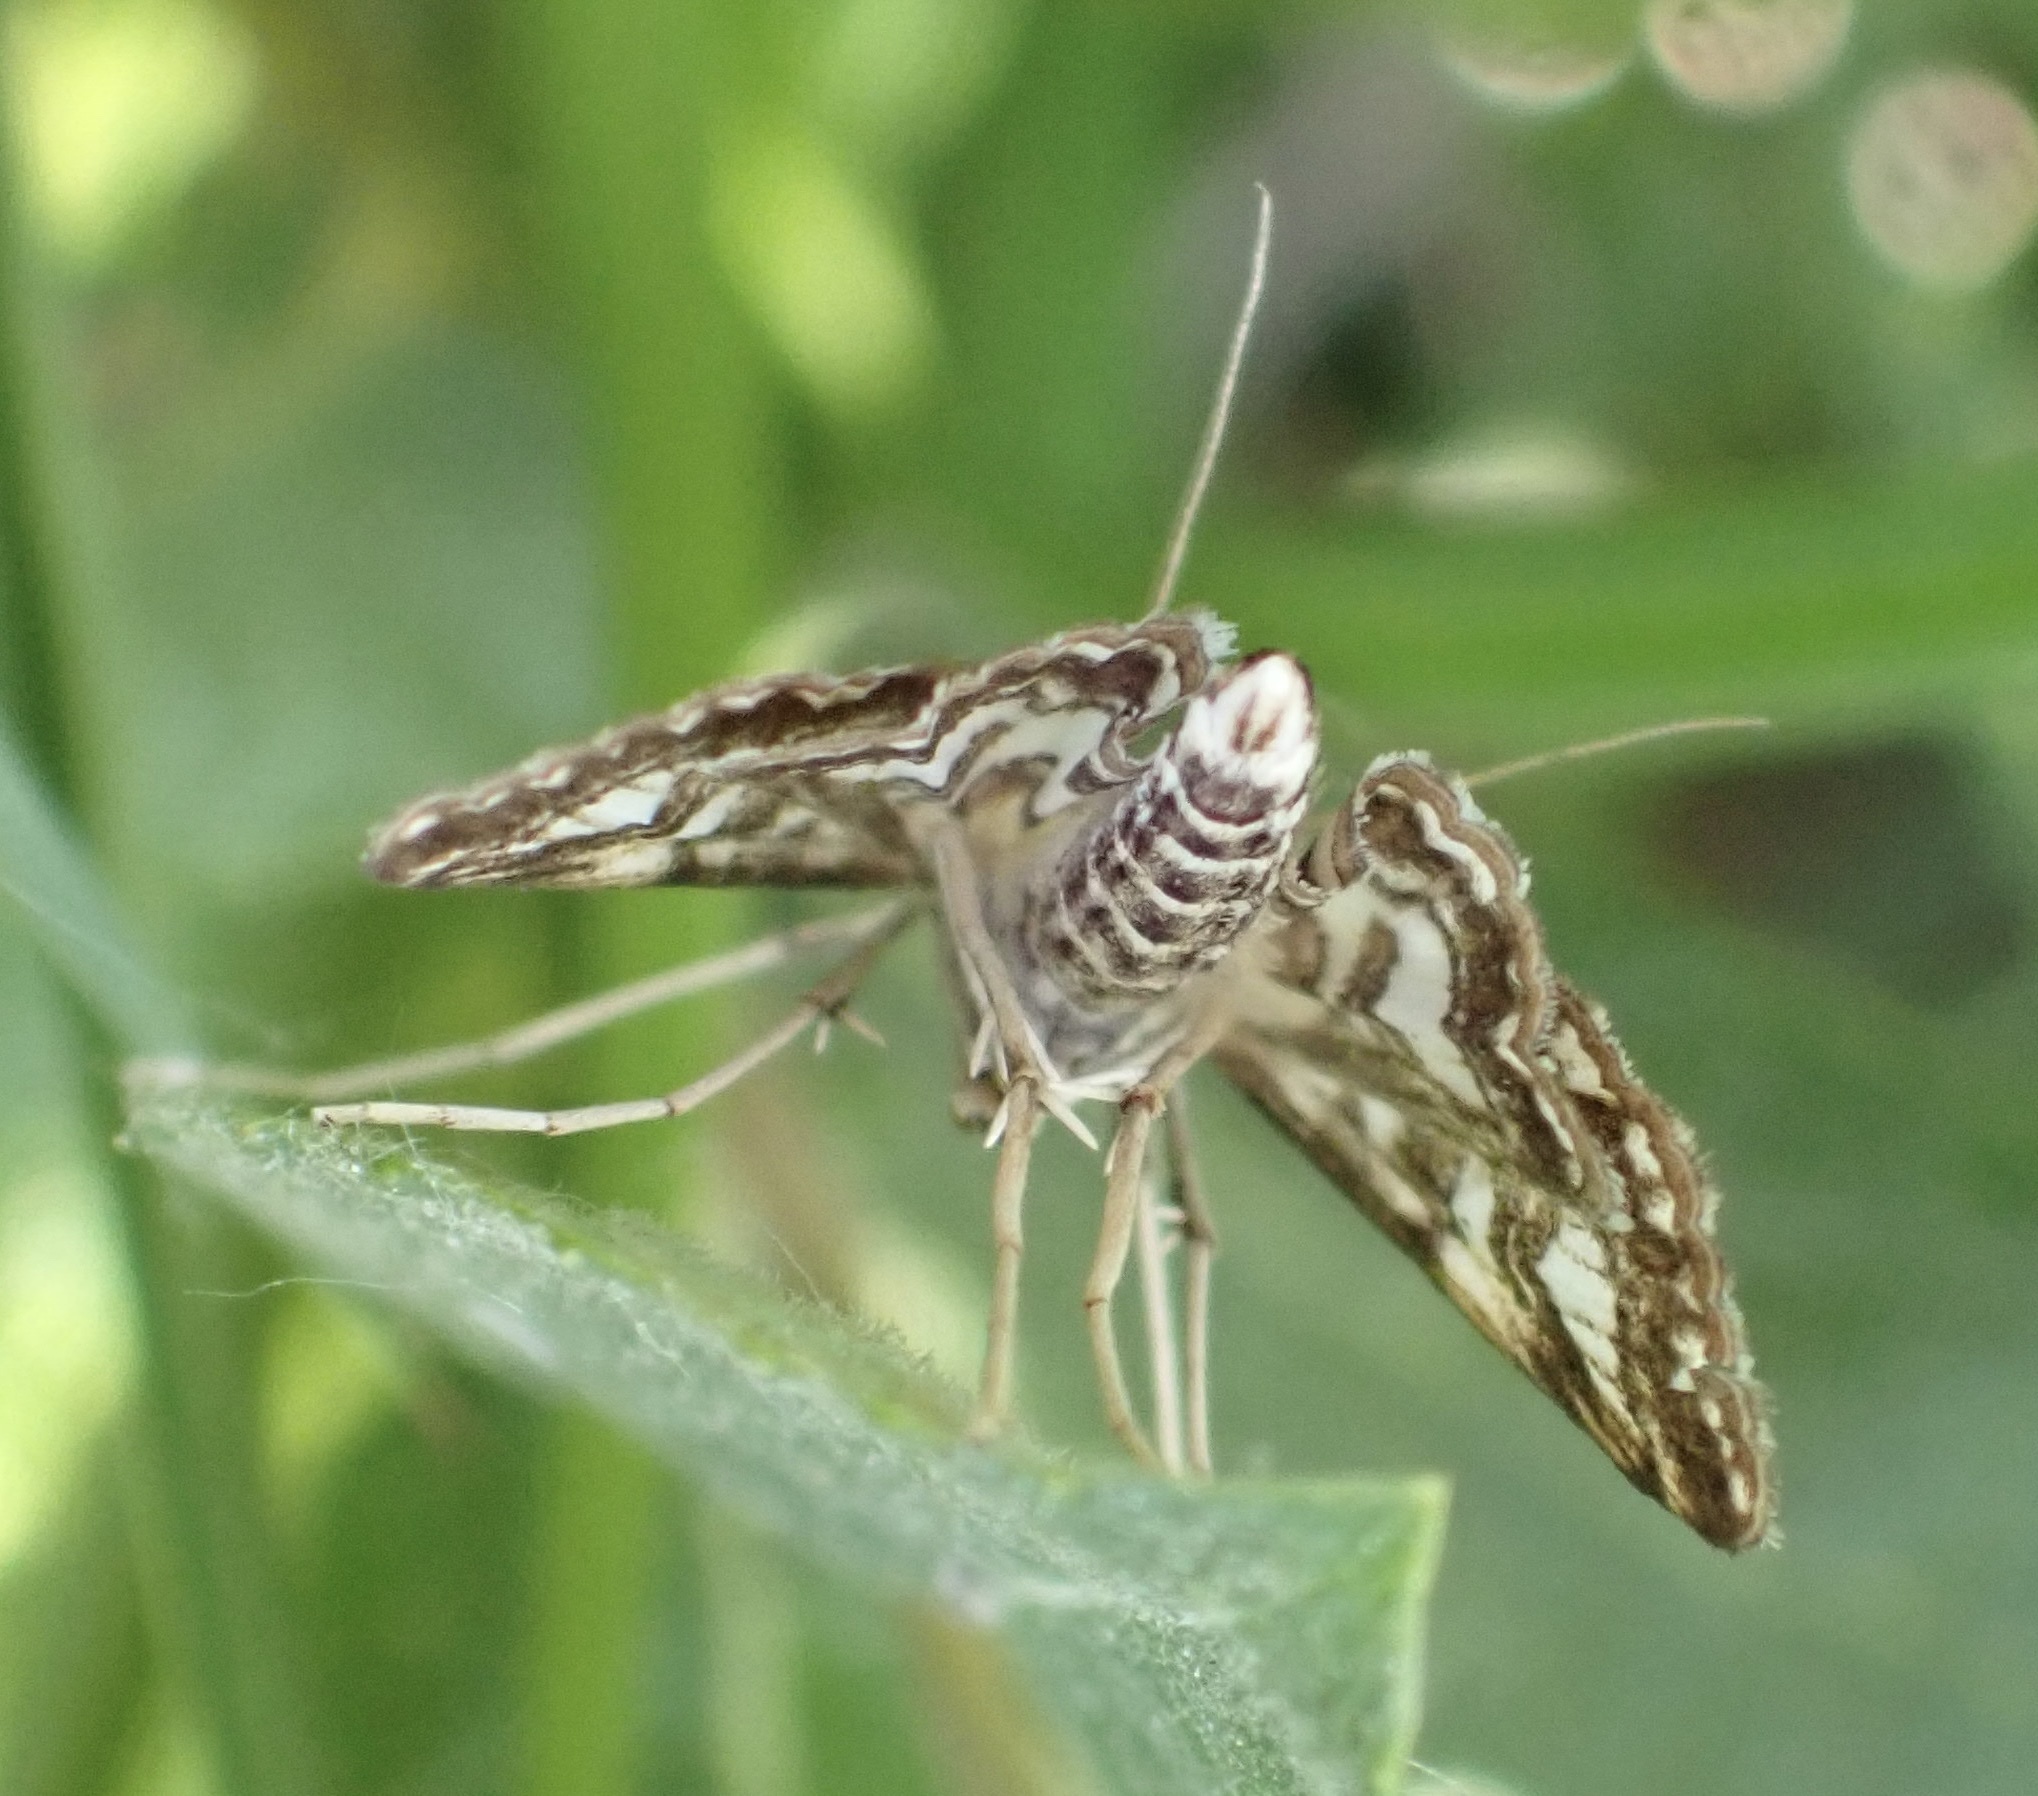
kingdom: Animalia
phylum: Arthropoda
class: Insecta
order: Lepidoptera
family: Crambidae
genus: Elophila
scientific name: Elophila nymphaeata
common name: Brown china-mark
